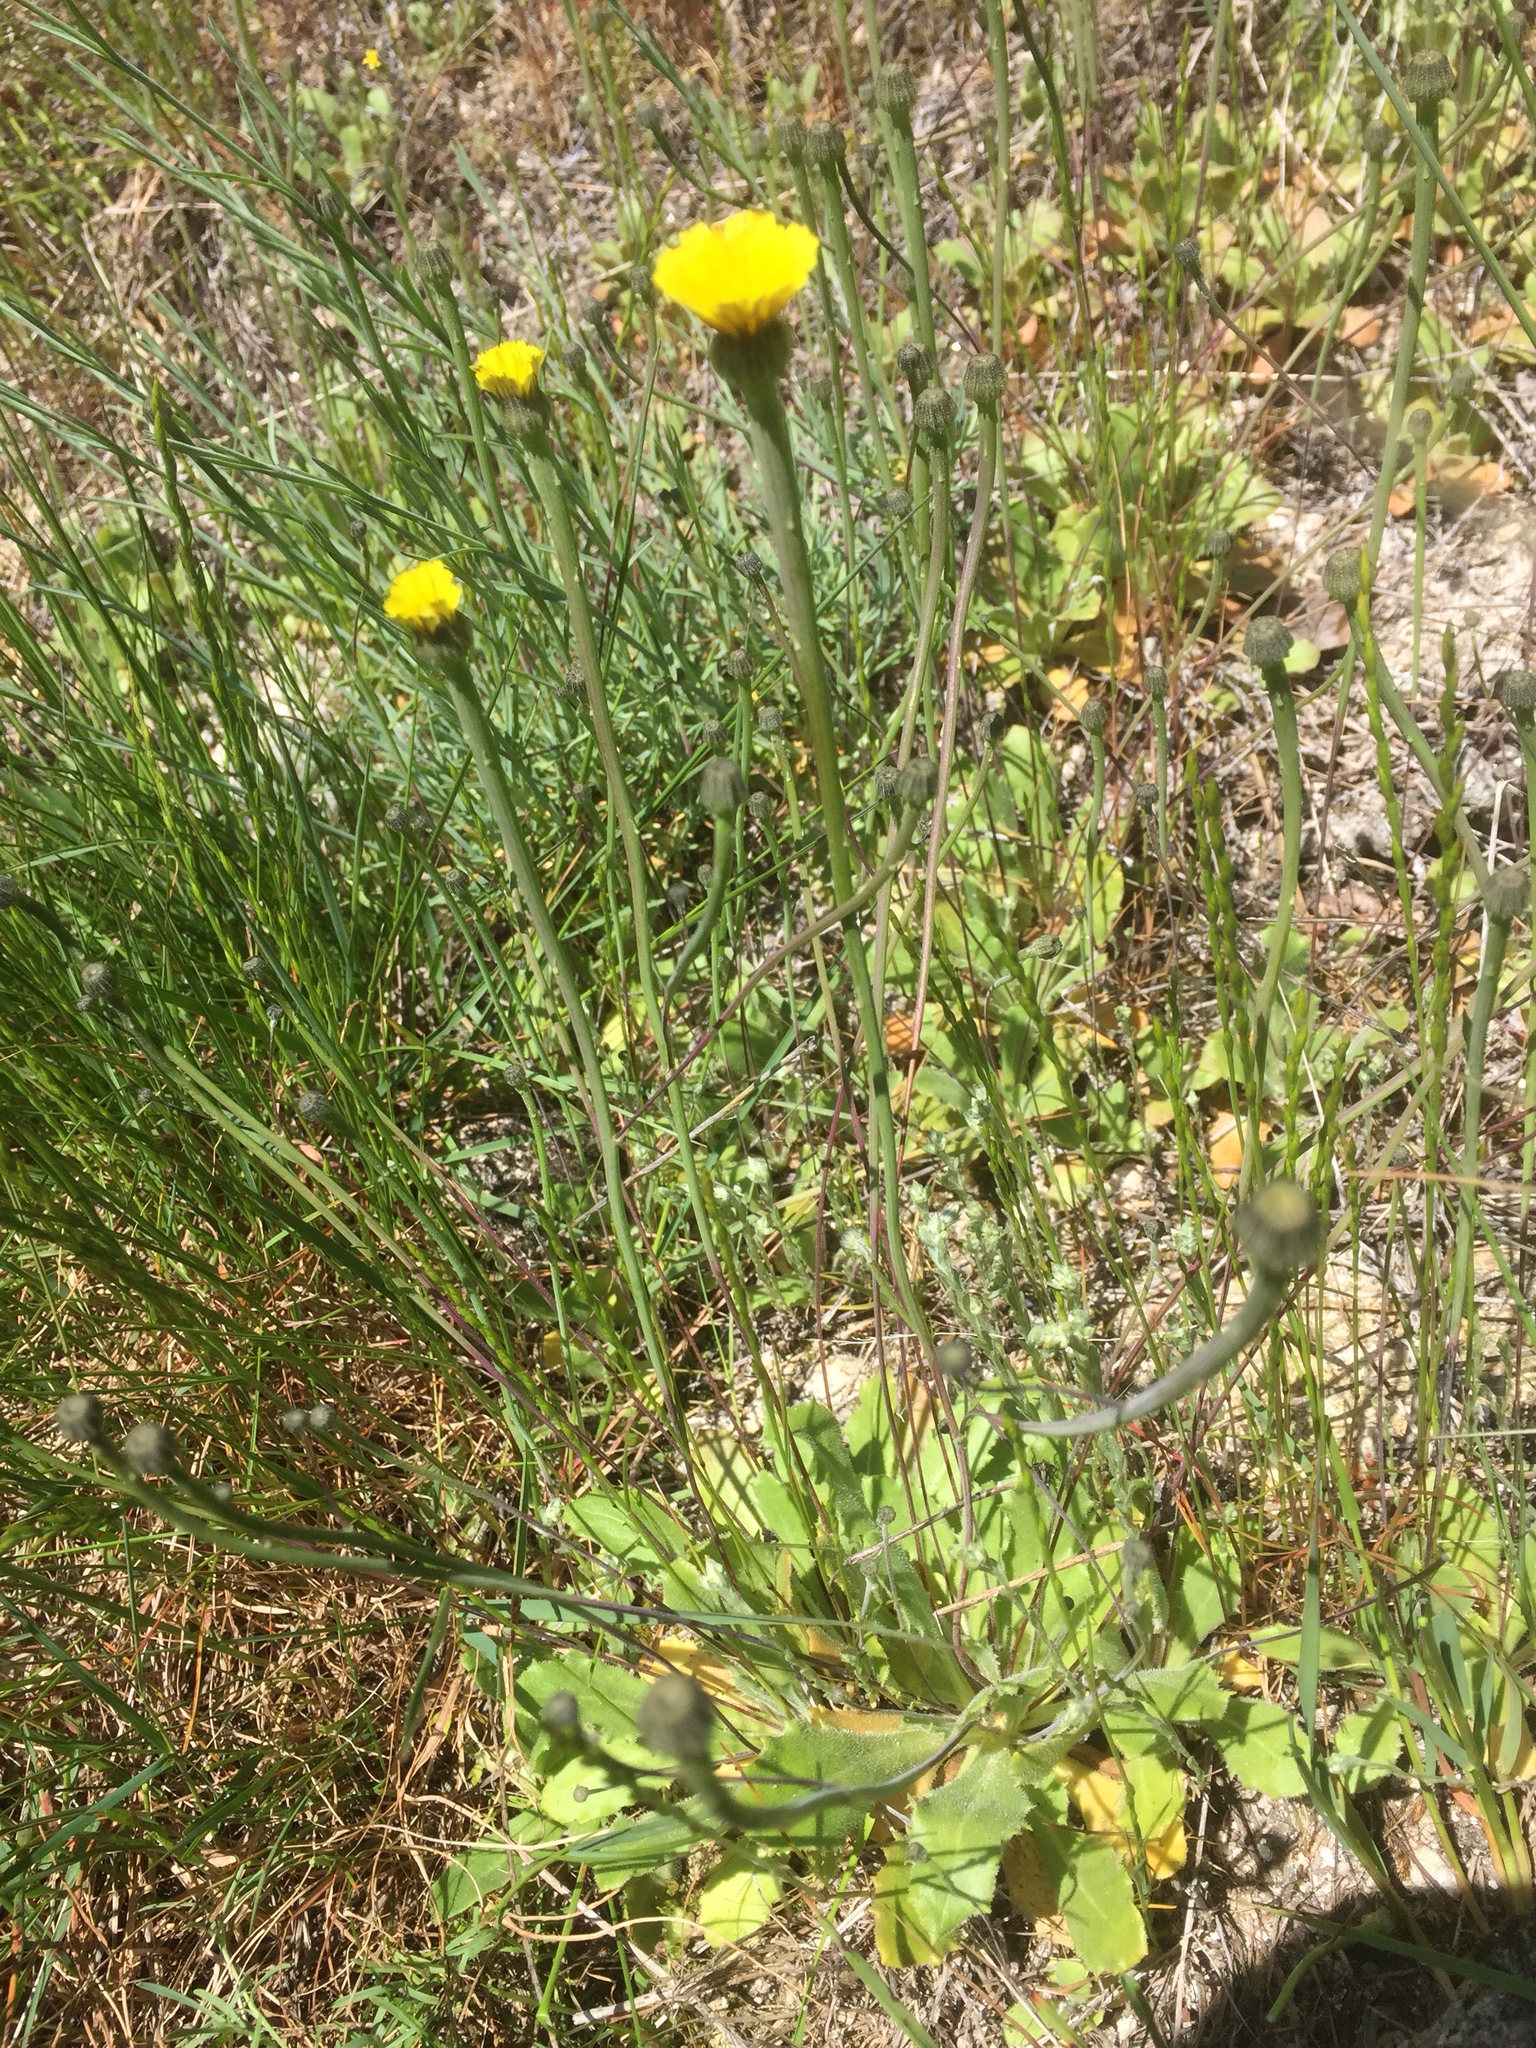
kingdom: Plantae
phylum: Tracheophyta
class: Magnoliopsida
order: Asterales
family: Asteraceae
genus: Arnoseris
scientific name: Arnoseris minima
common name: Lamb's succory
